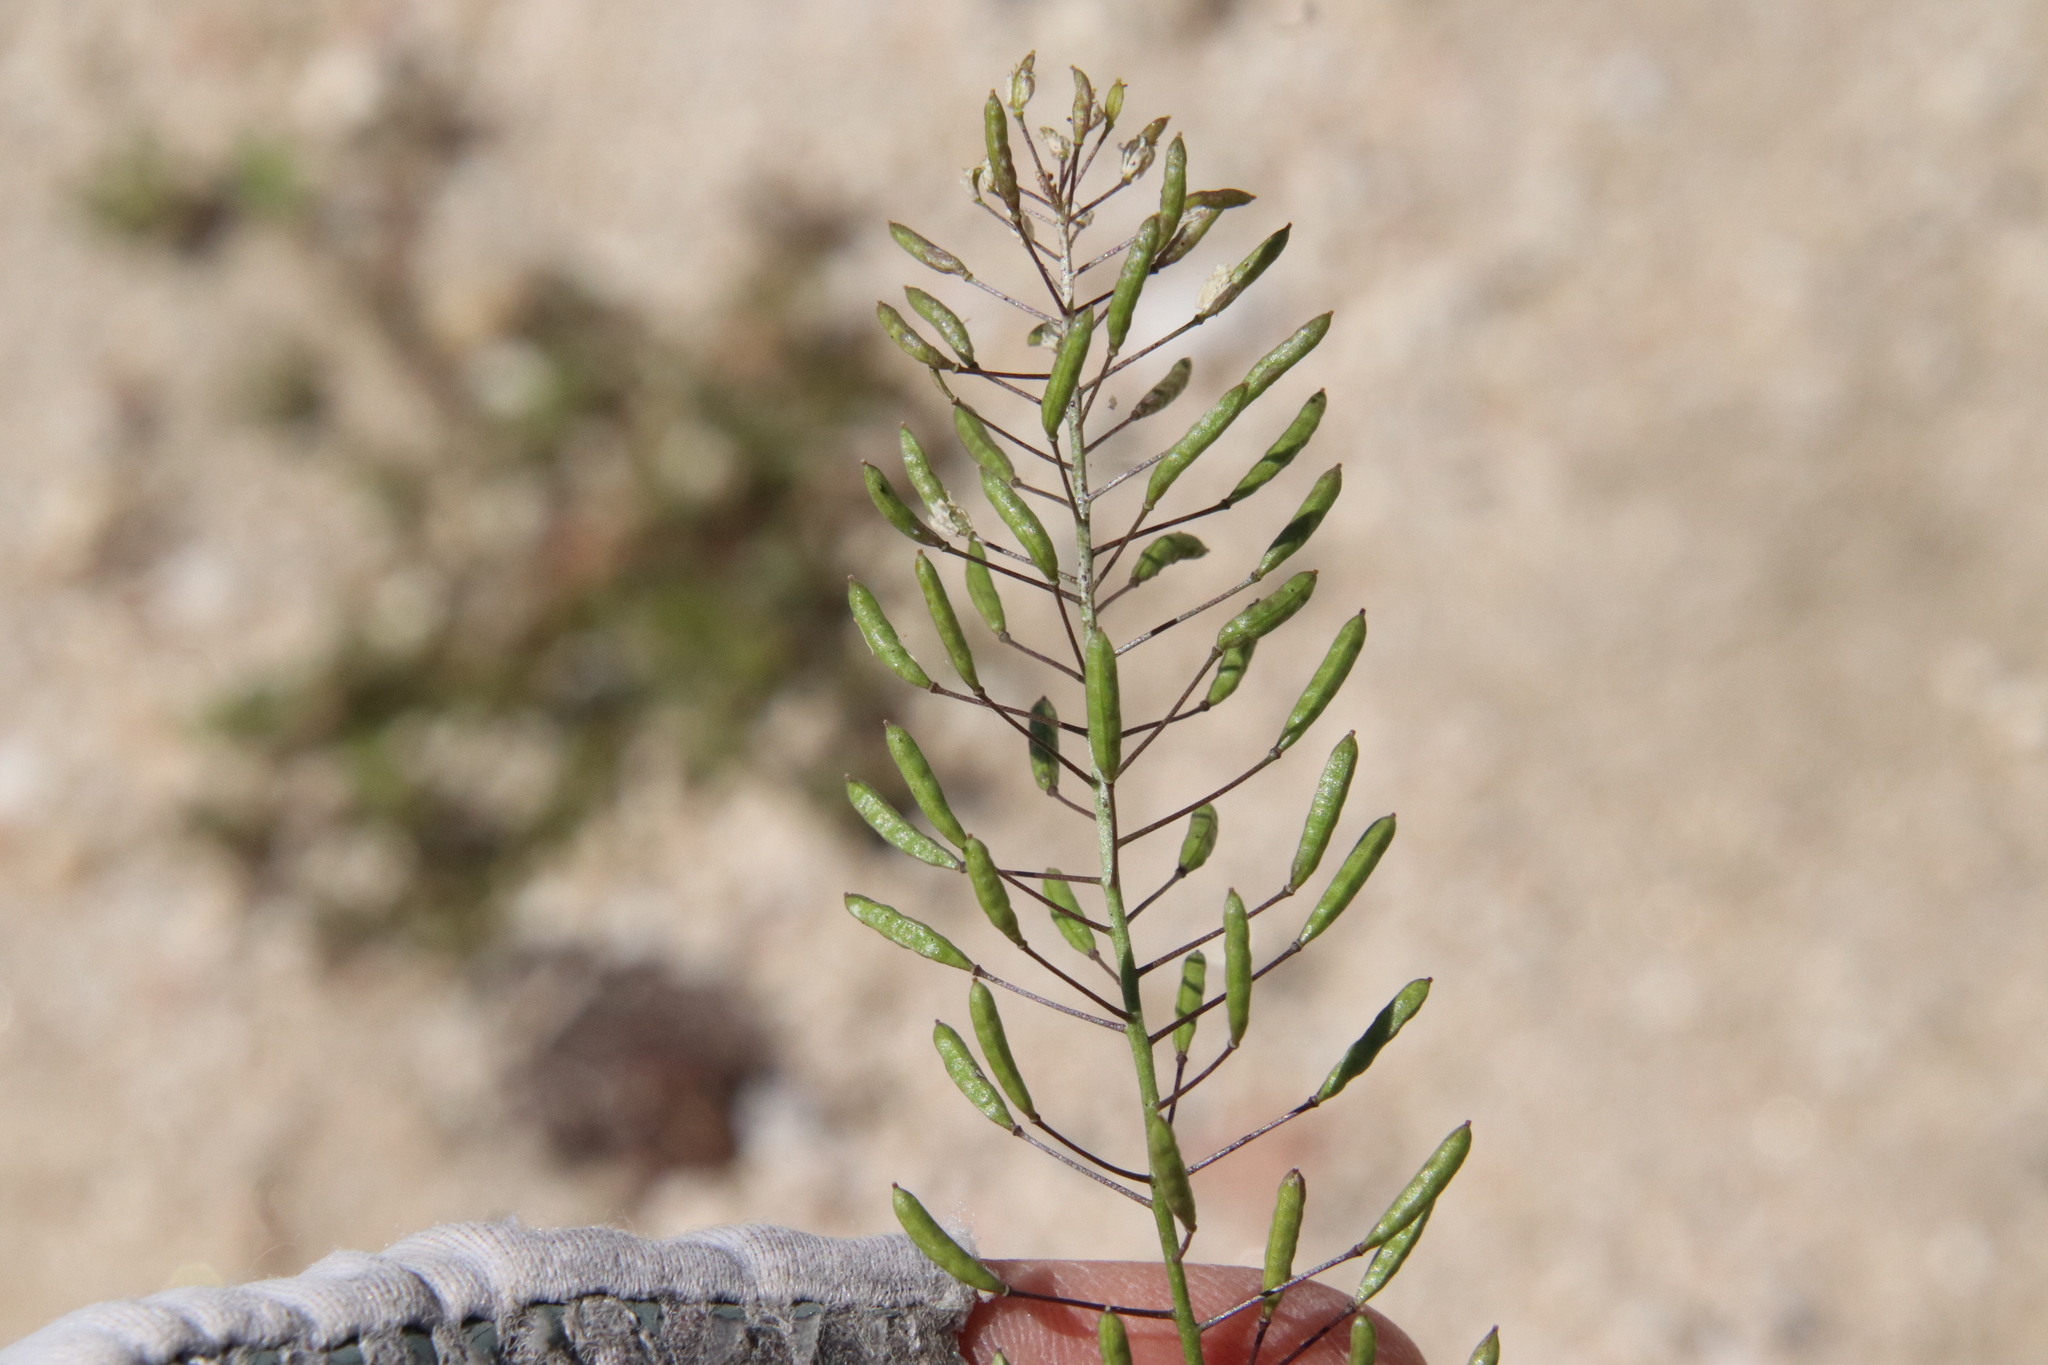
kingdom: Plantae
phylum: Tracheophyta
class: Magnoliopsida
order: Brassicales
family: Brassicaceae
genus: Descurainia
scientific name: Descurainia pinnata
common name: Western tansy mustard
